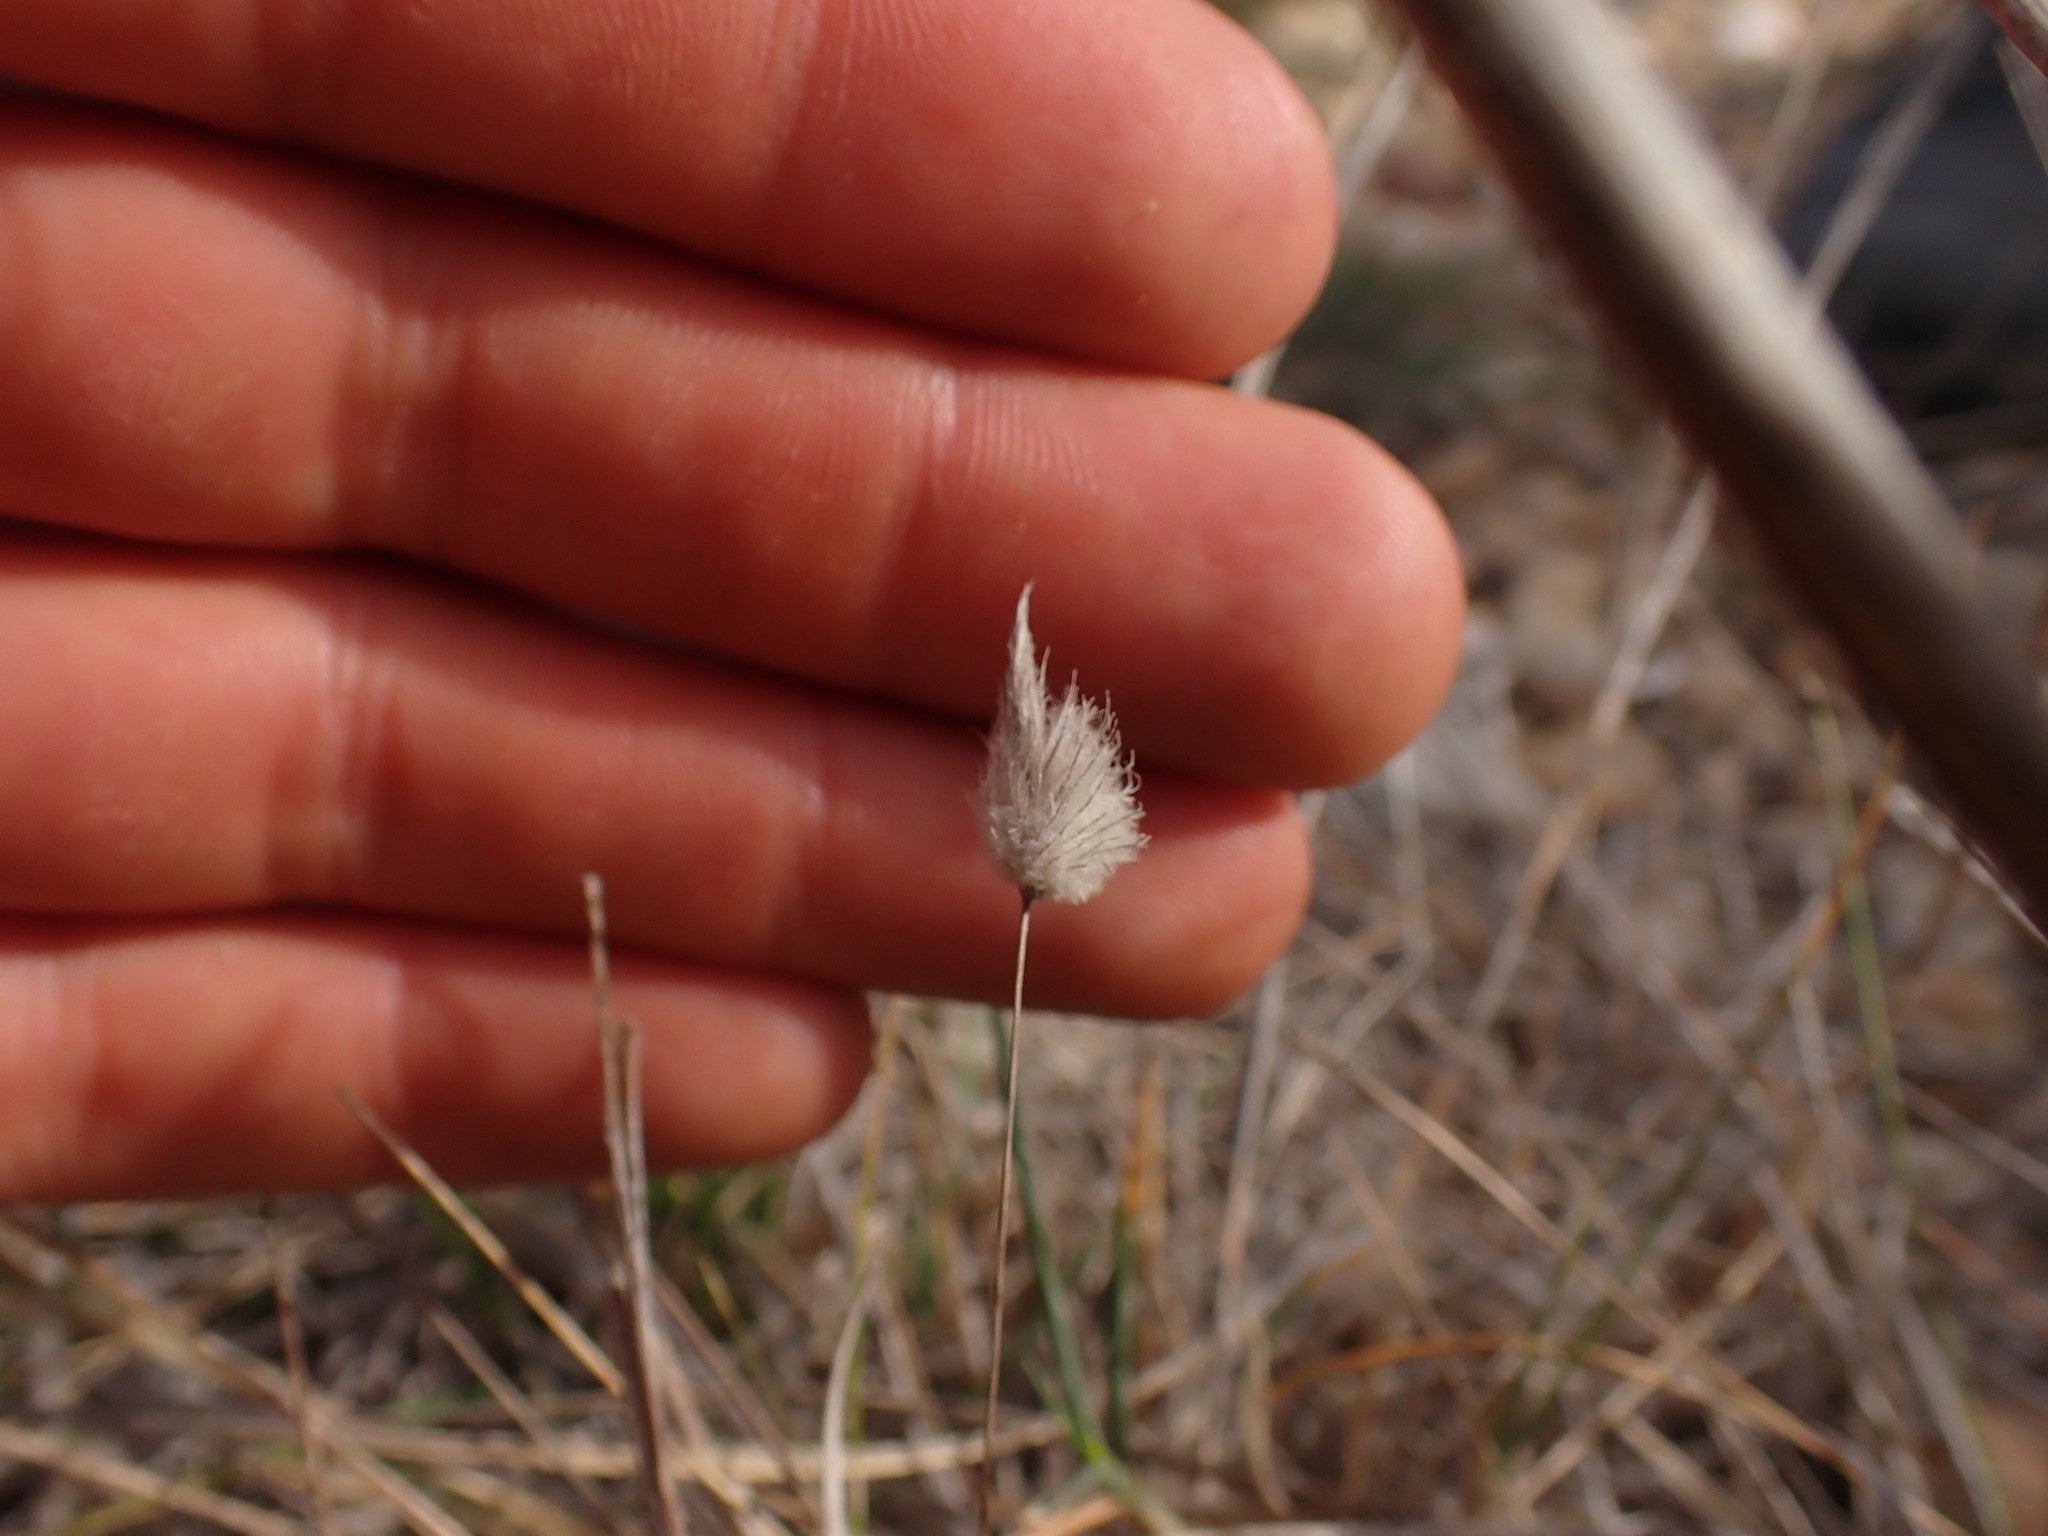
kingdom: Plantae
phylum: Tracheophyta
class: Liliopsida
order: Poales
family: Poaceae
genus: Lagurus
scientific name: Lagurus ovatus
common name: Hare's-tail
